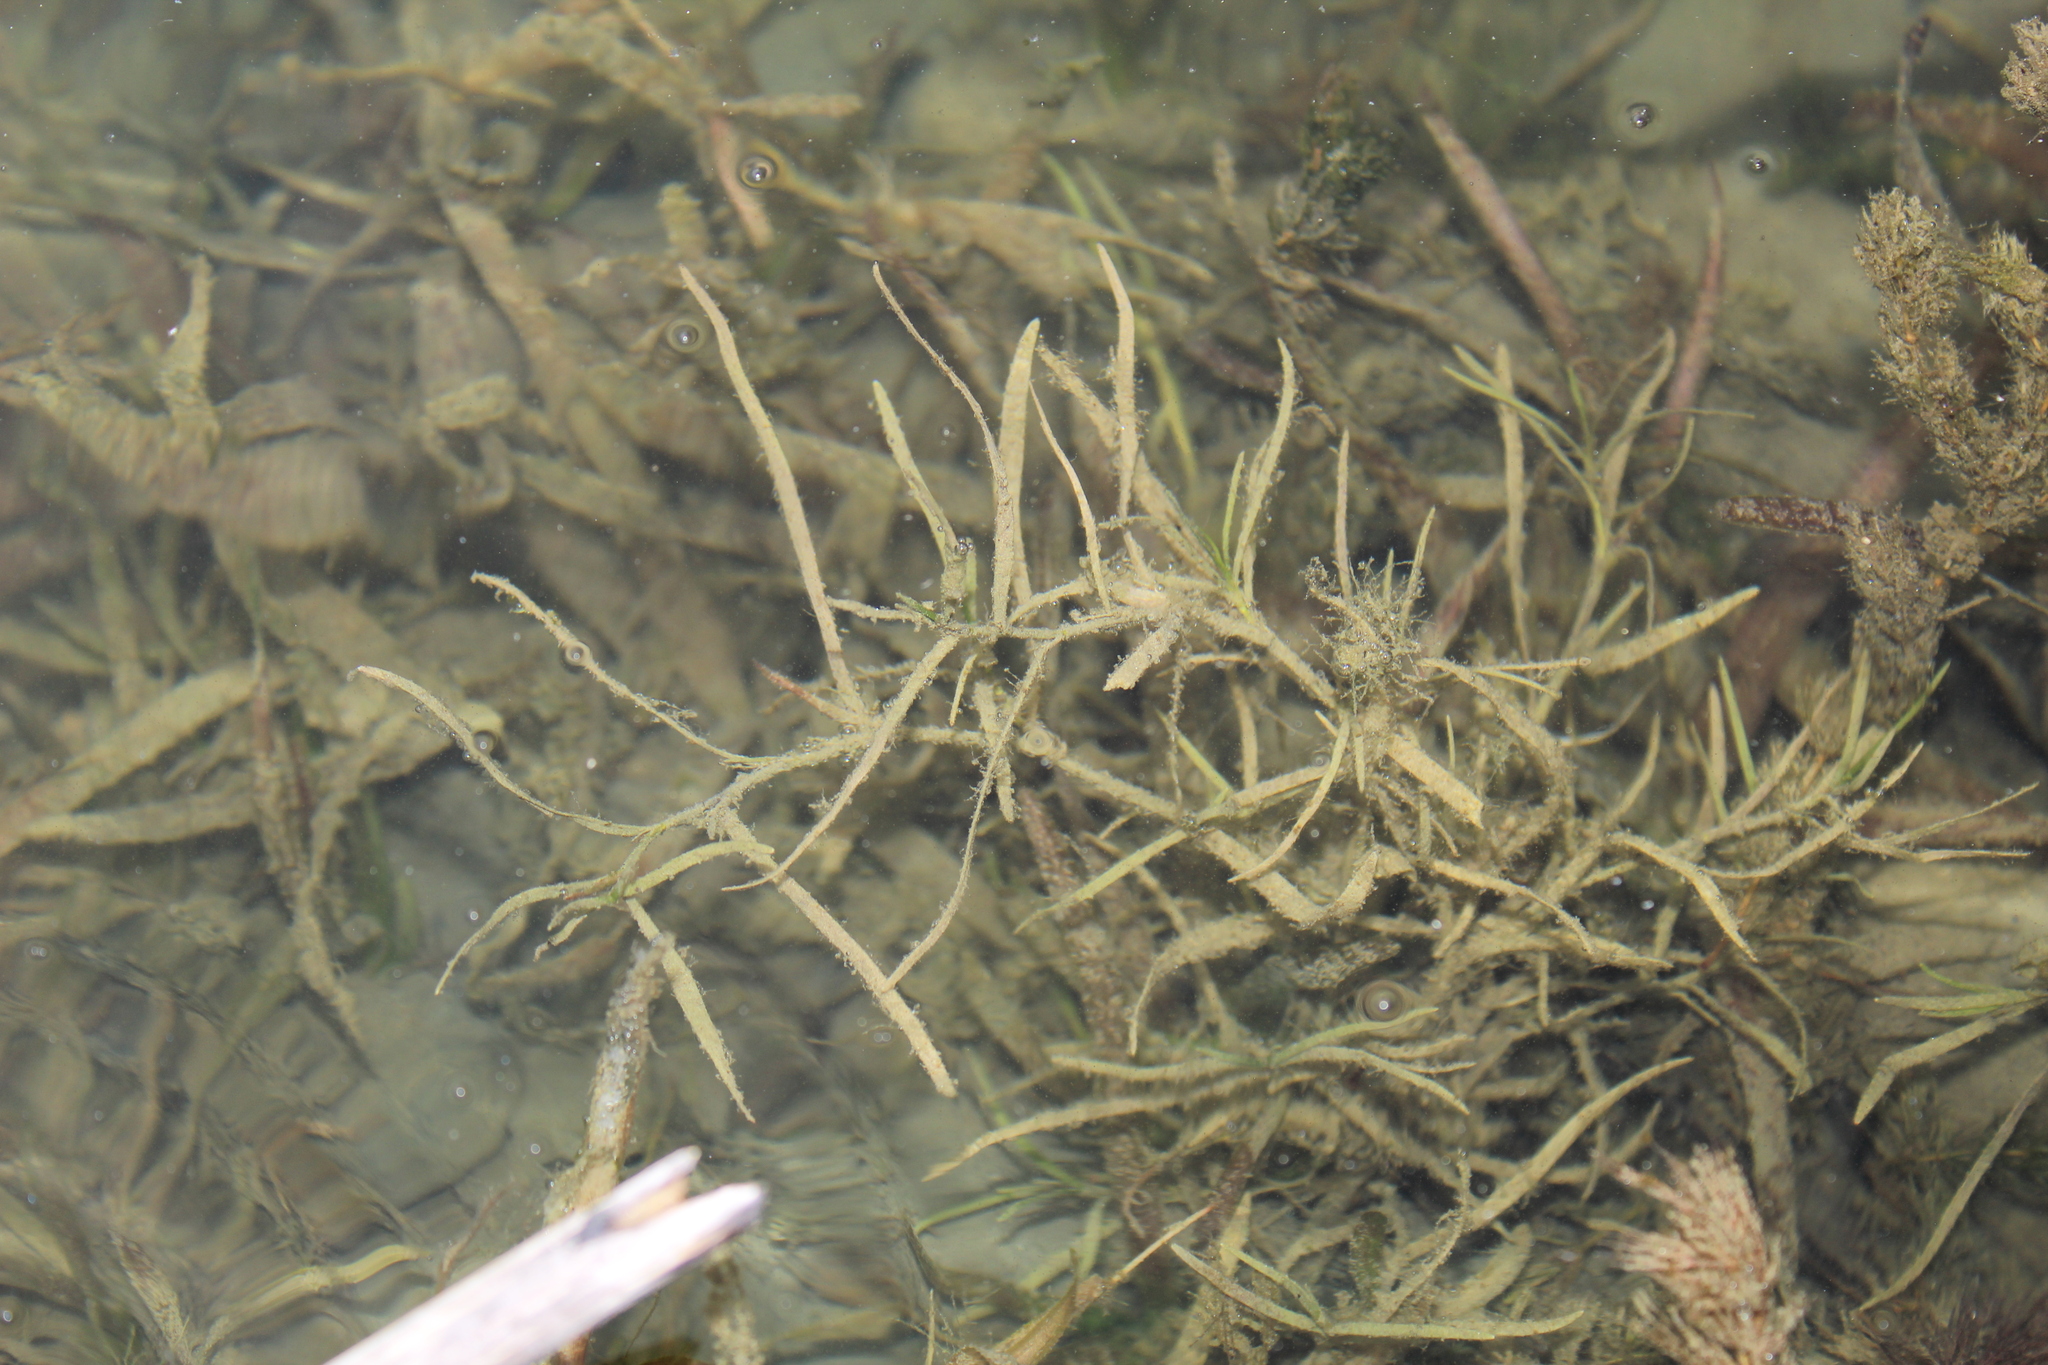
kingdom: Plantae
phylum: Tracheophyta
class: Liliopsida
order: Alismatales
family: Potamogetonaceae
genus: Potamogeton
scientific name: Potamogeton foliosus
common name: Leafy pondweed
